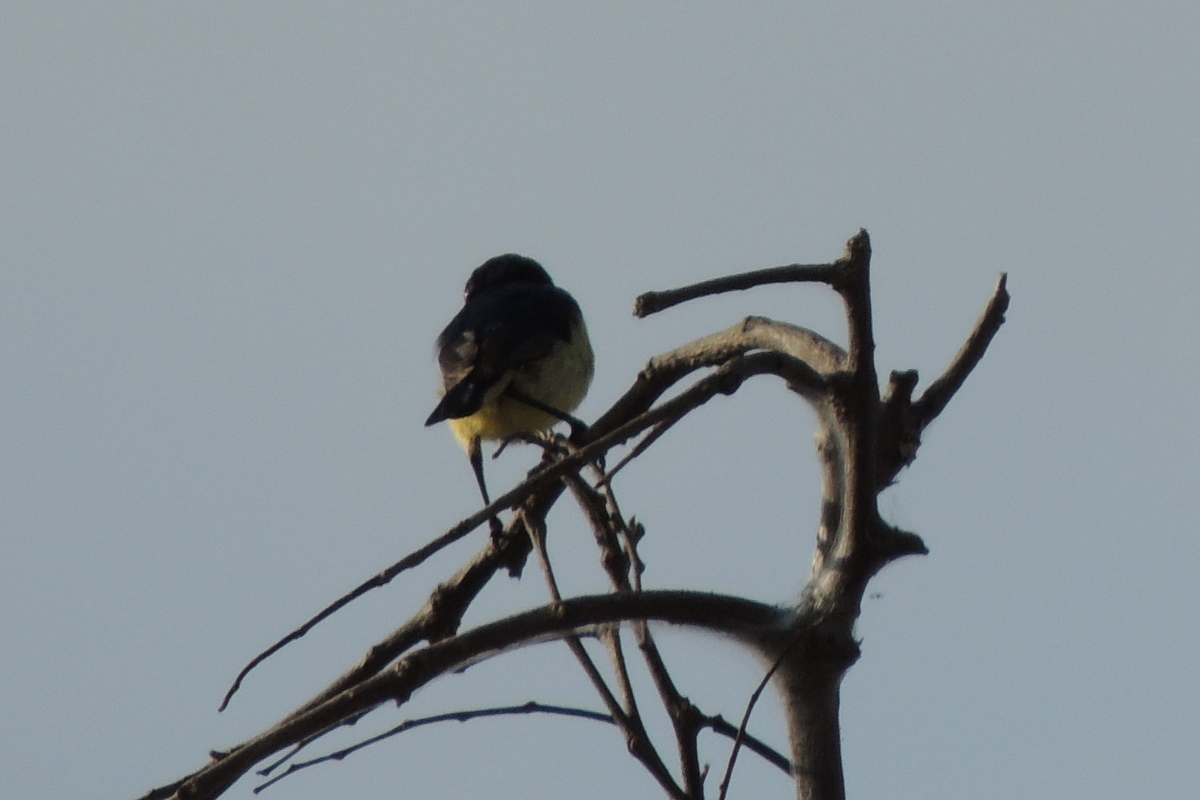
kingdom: Animalia
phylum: Chordata
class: Aves
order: Passeriformes
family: Nectariniidae
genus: Cinnyris
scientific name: Cinnyris venustus
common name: Variable sunbird
